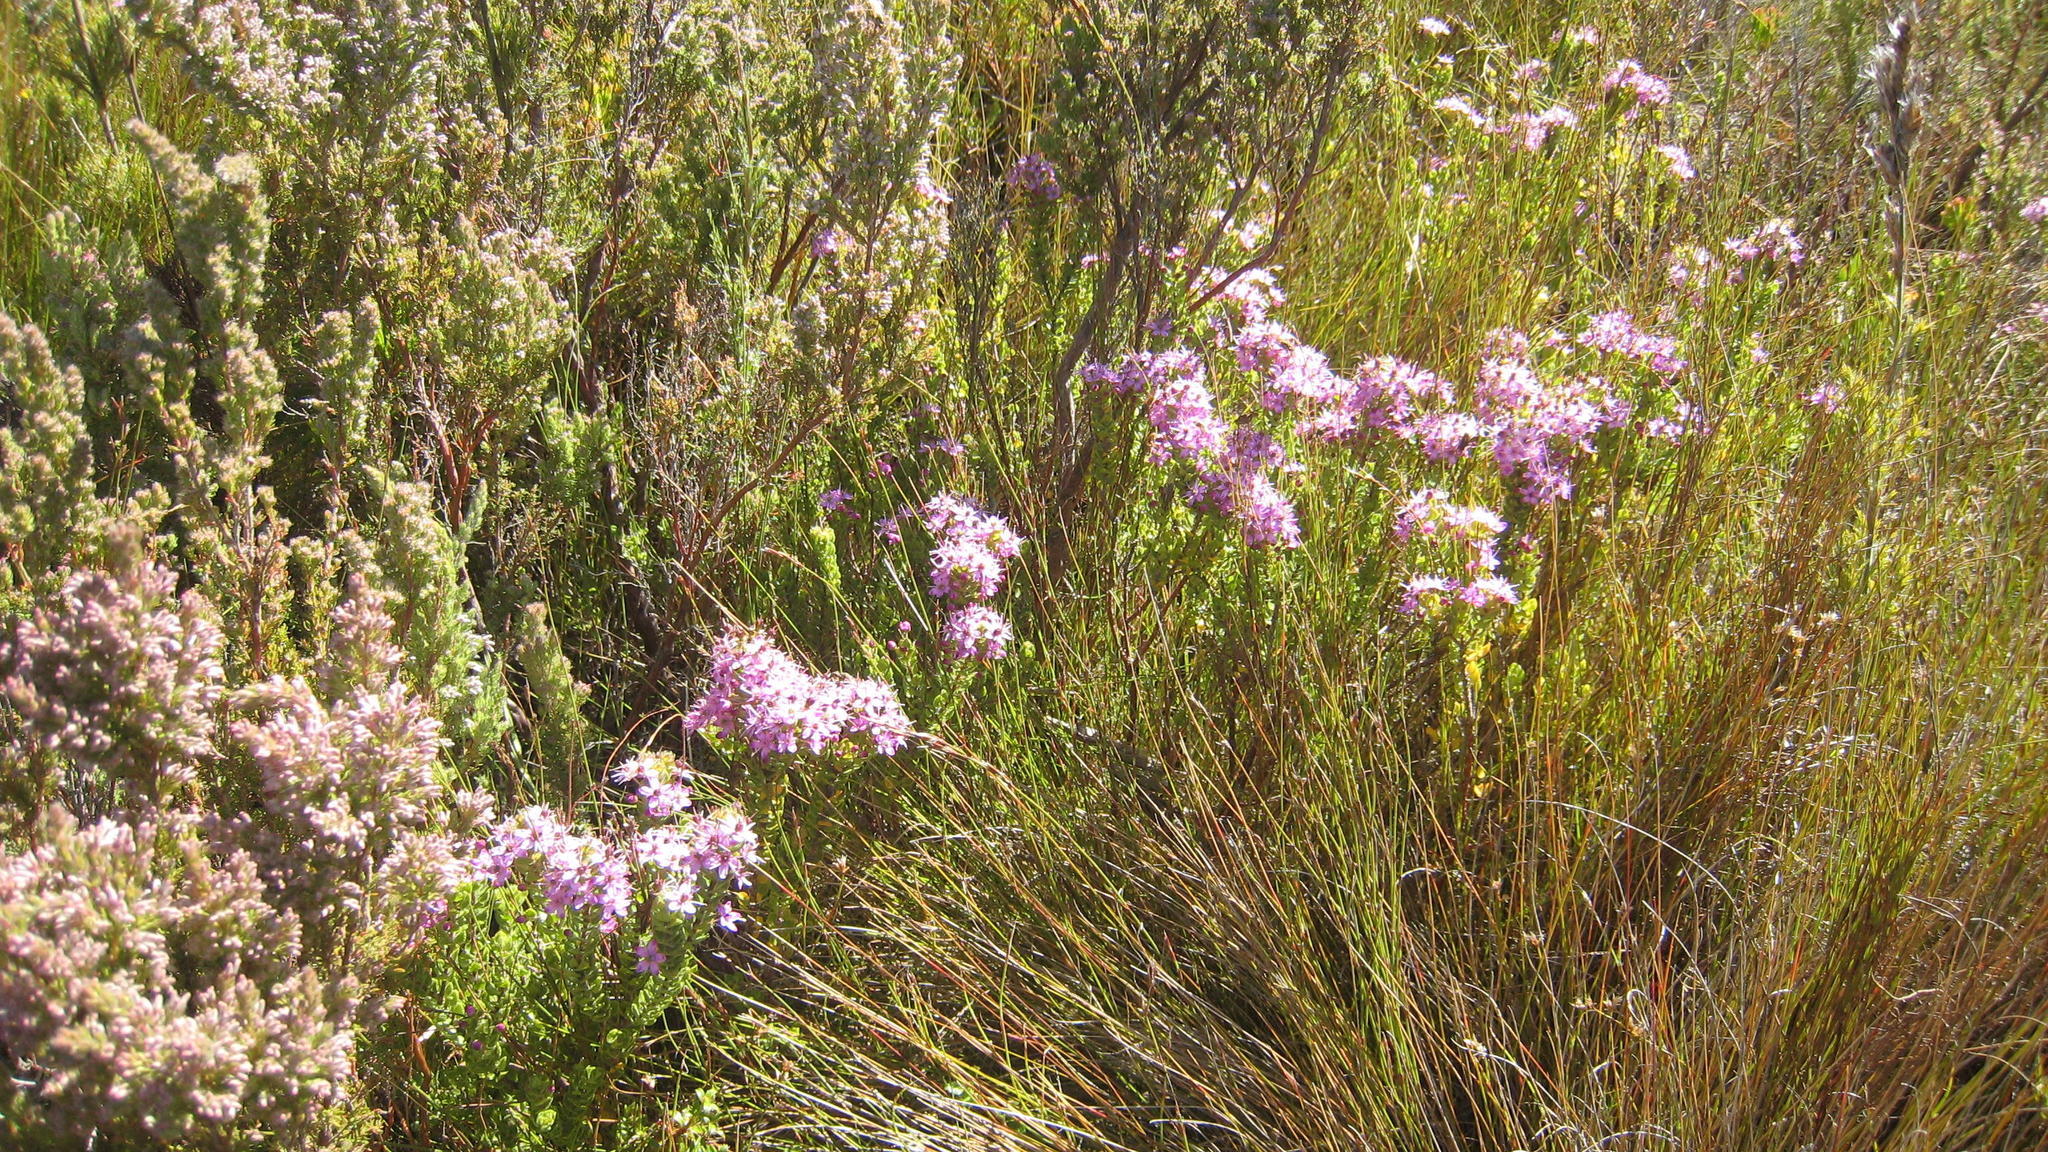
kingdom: Plantae
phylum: Tracheophyta
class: Magnoliopsida
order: Sapindales
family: Rutaceae
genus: Agathosma
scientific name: Agathosma odoratissima
